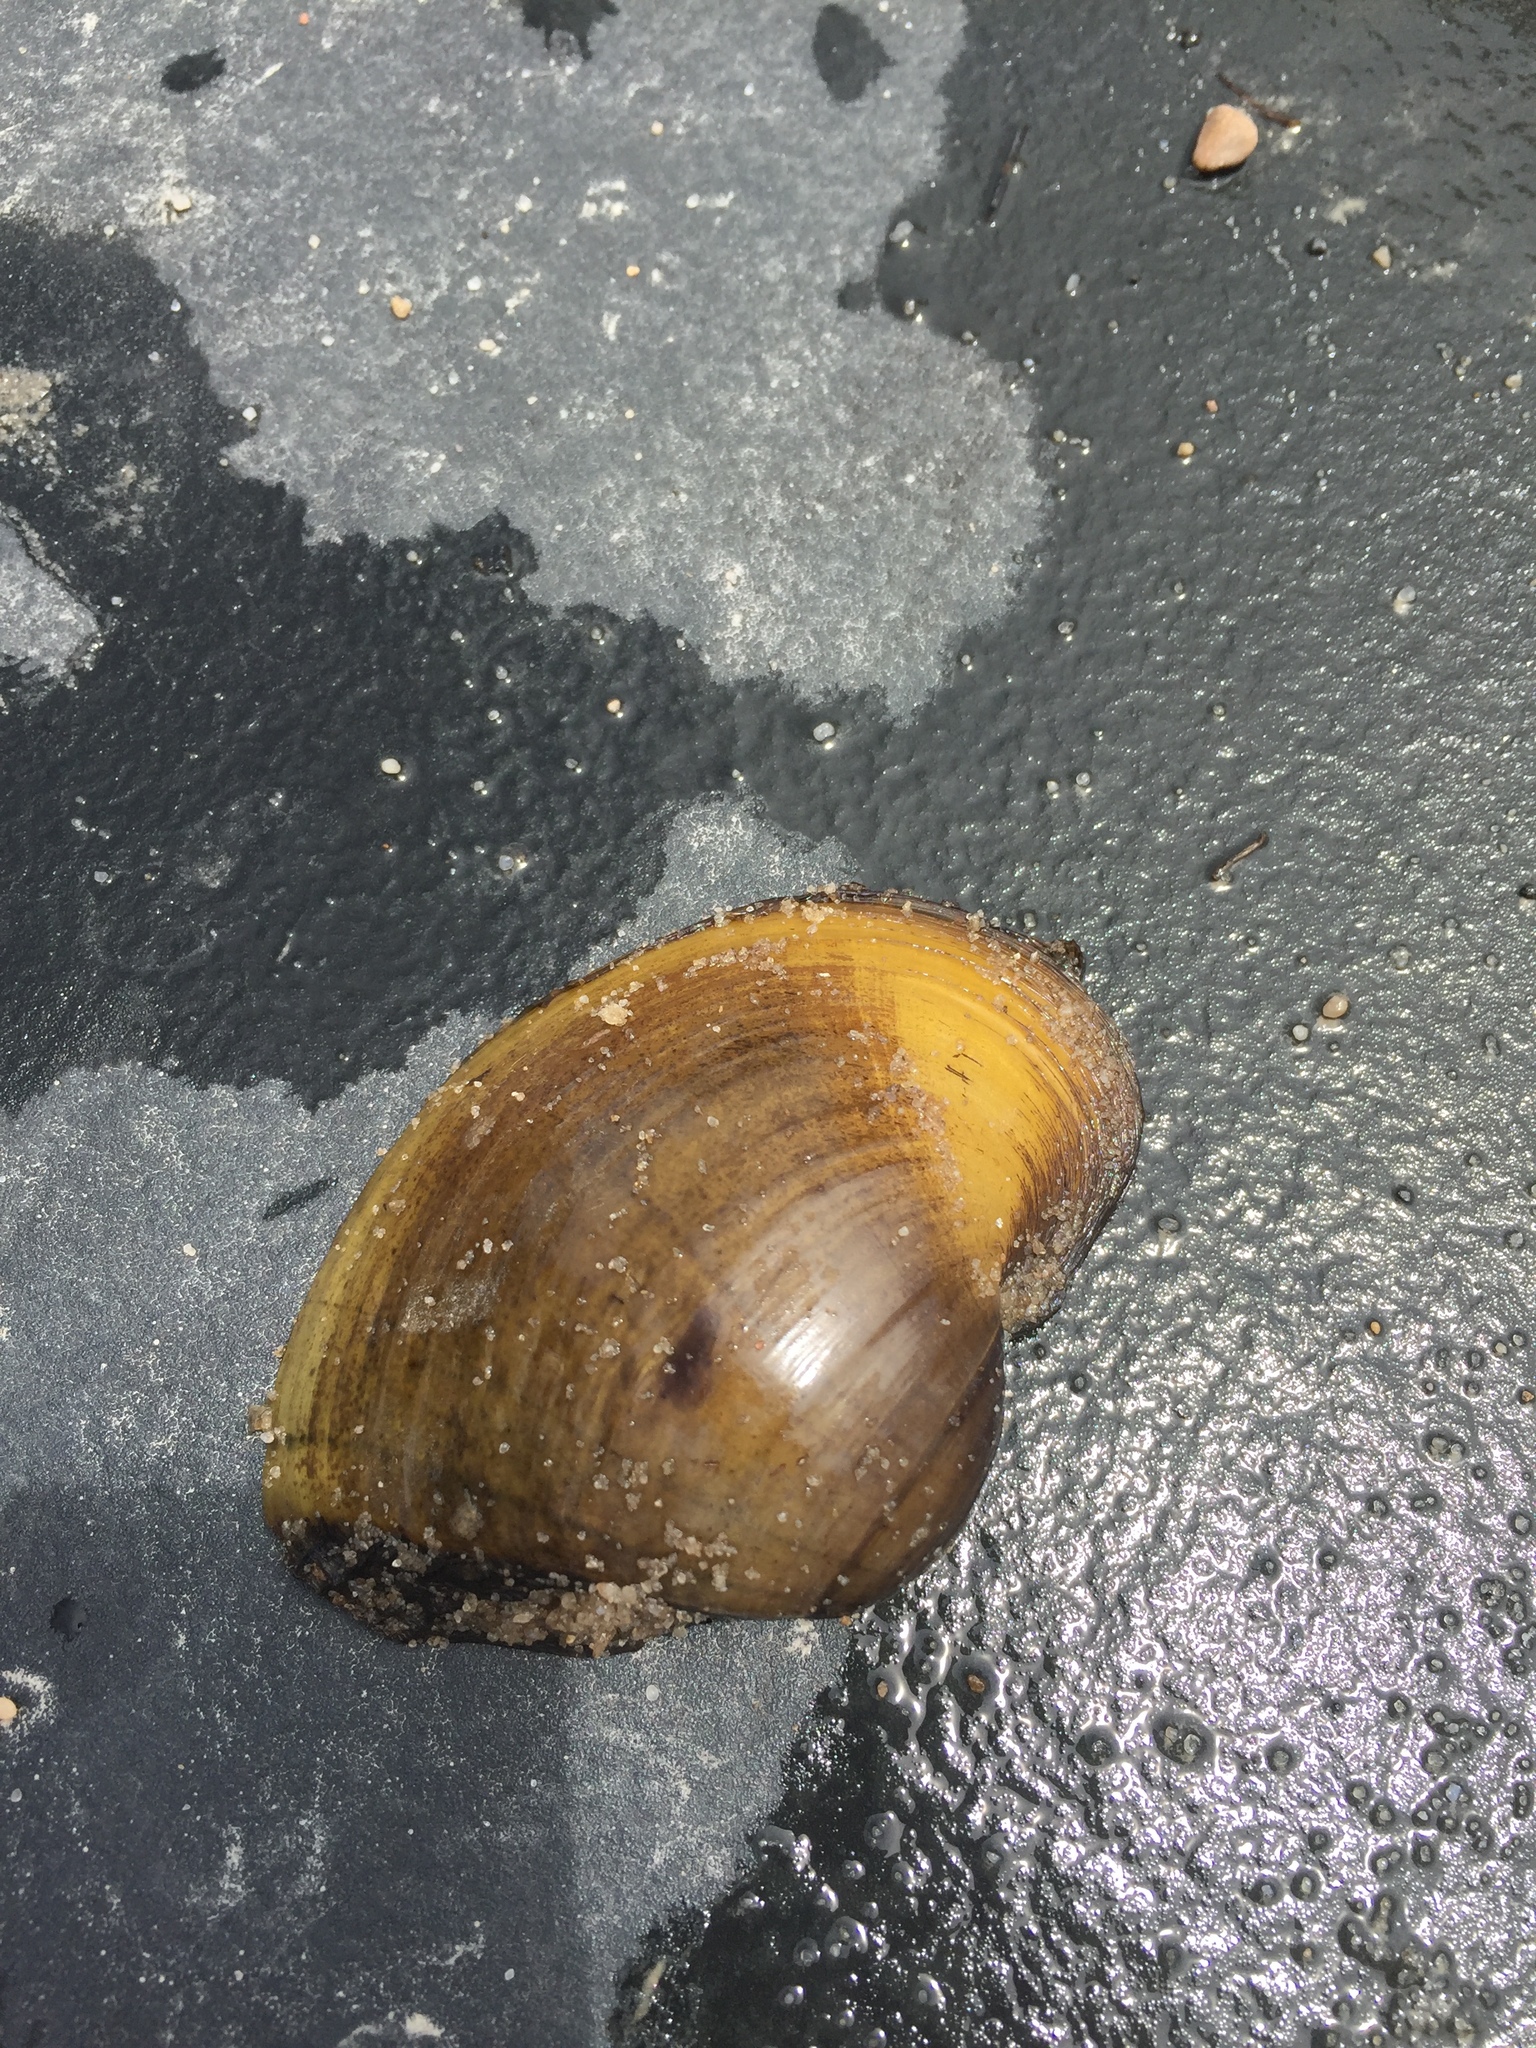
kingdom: Animalia
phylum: Mollusca
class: Bivalvia
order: Unionida
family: Unionidae
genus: Lampsilis
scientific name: Lampsilis ornata
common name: Southern pocketbook
